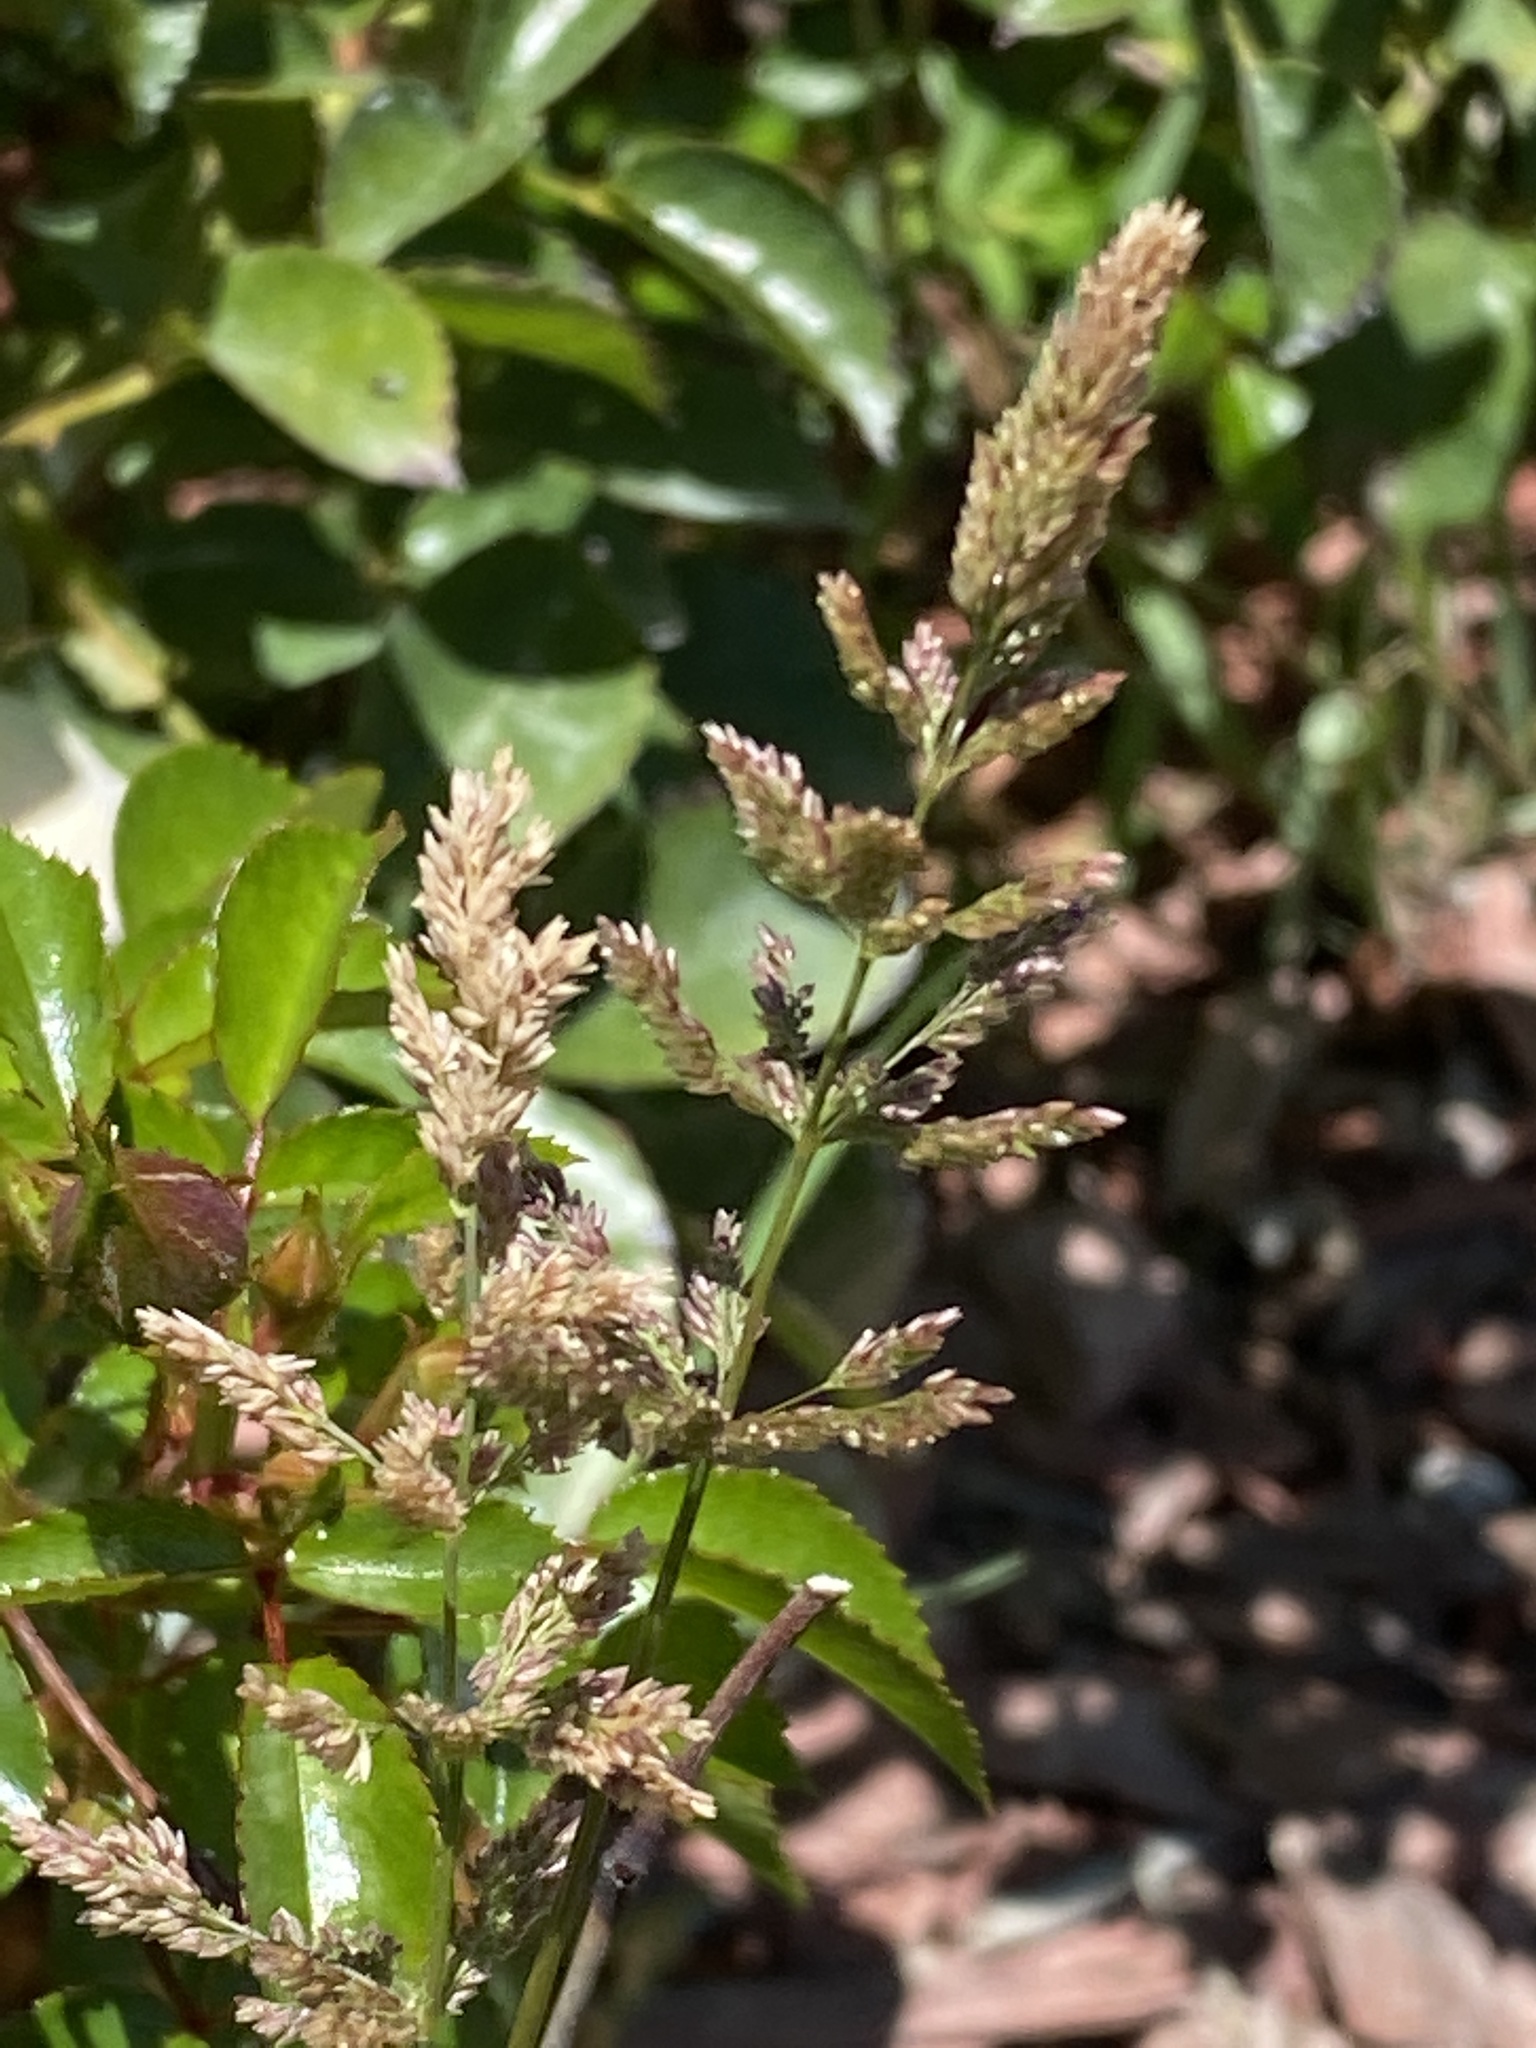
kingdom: Plantae
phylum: Tracheophyta
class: Liliopsida
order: Poales
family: Poaceae
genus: Polypogon
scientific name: Polypogon viridis
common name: Water bent
